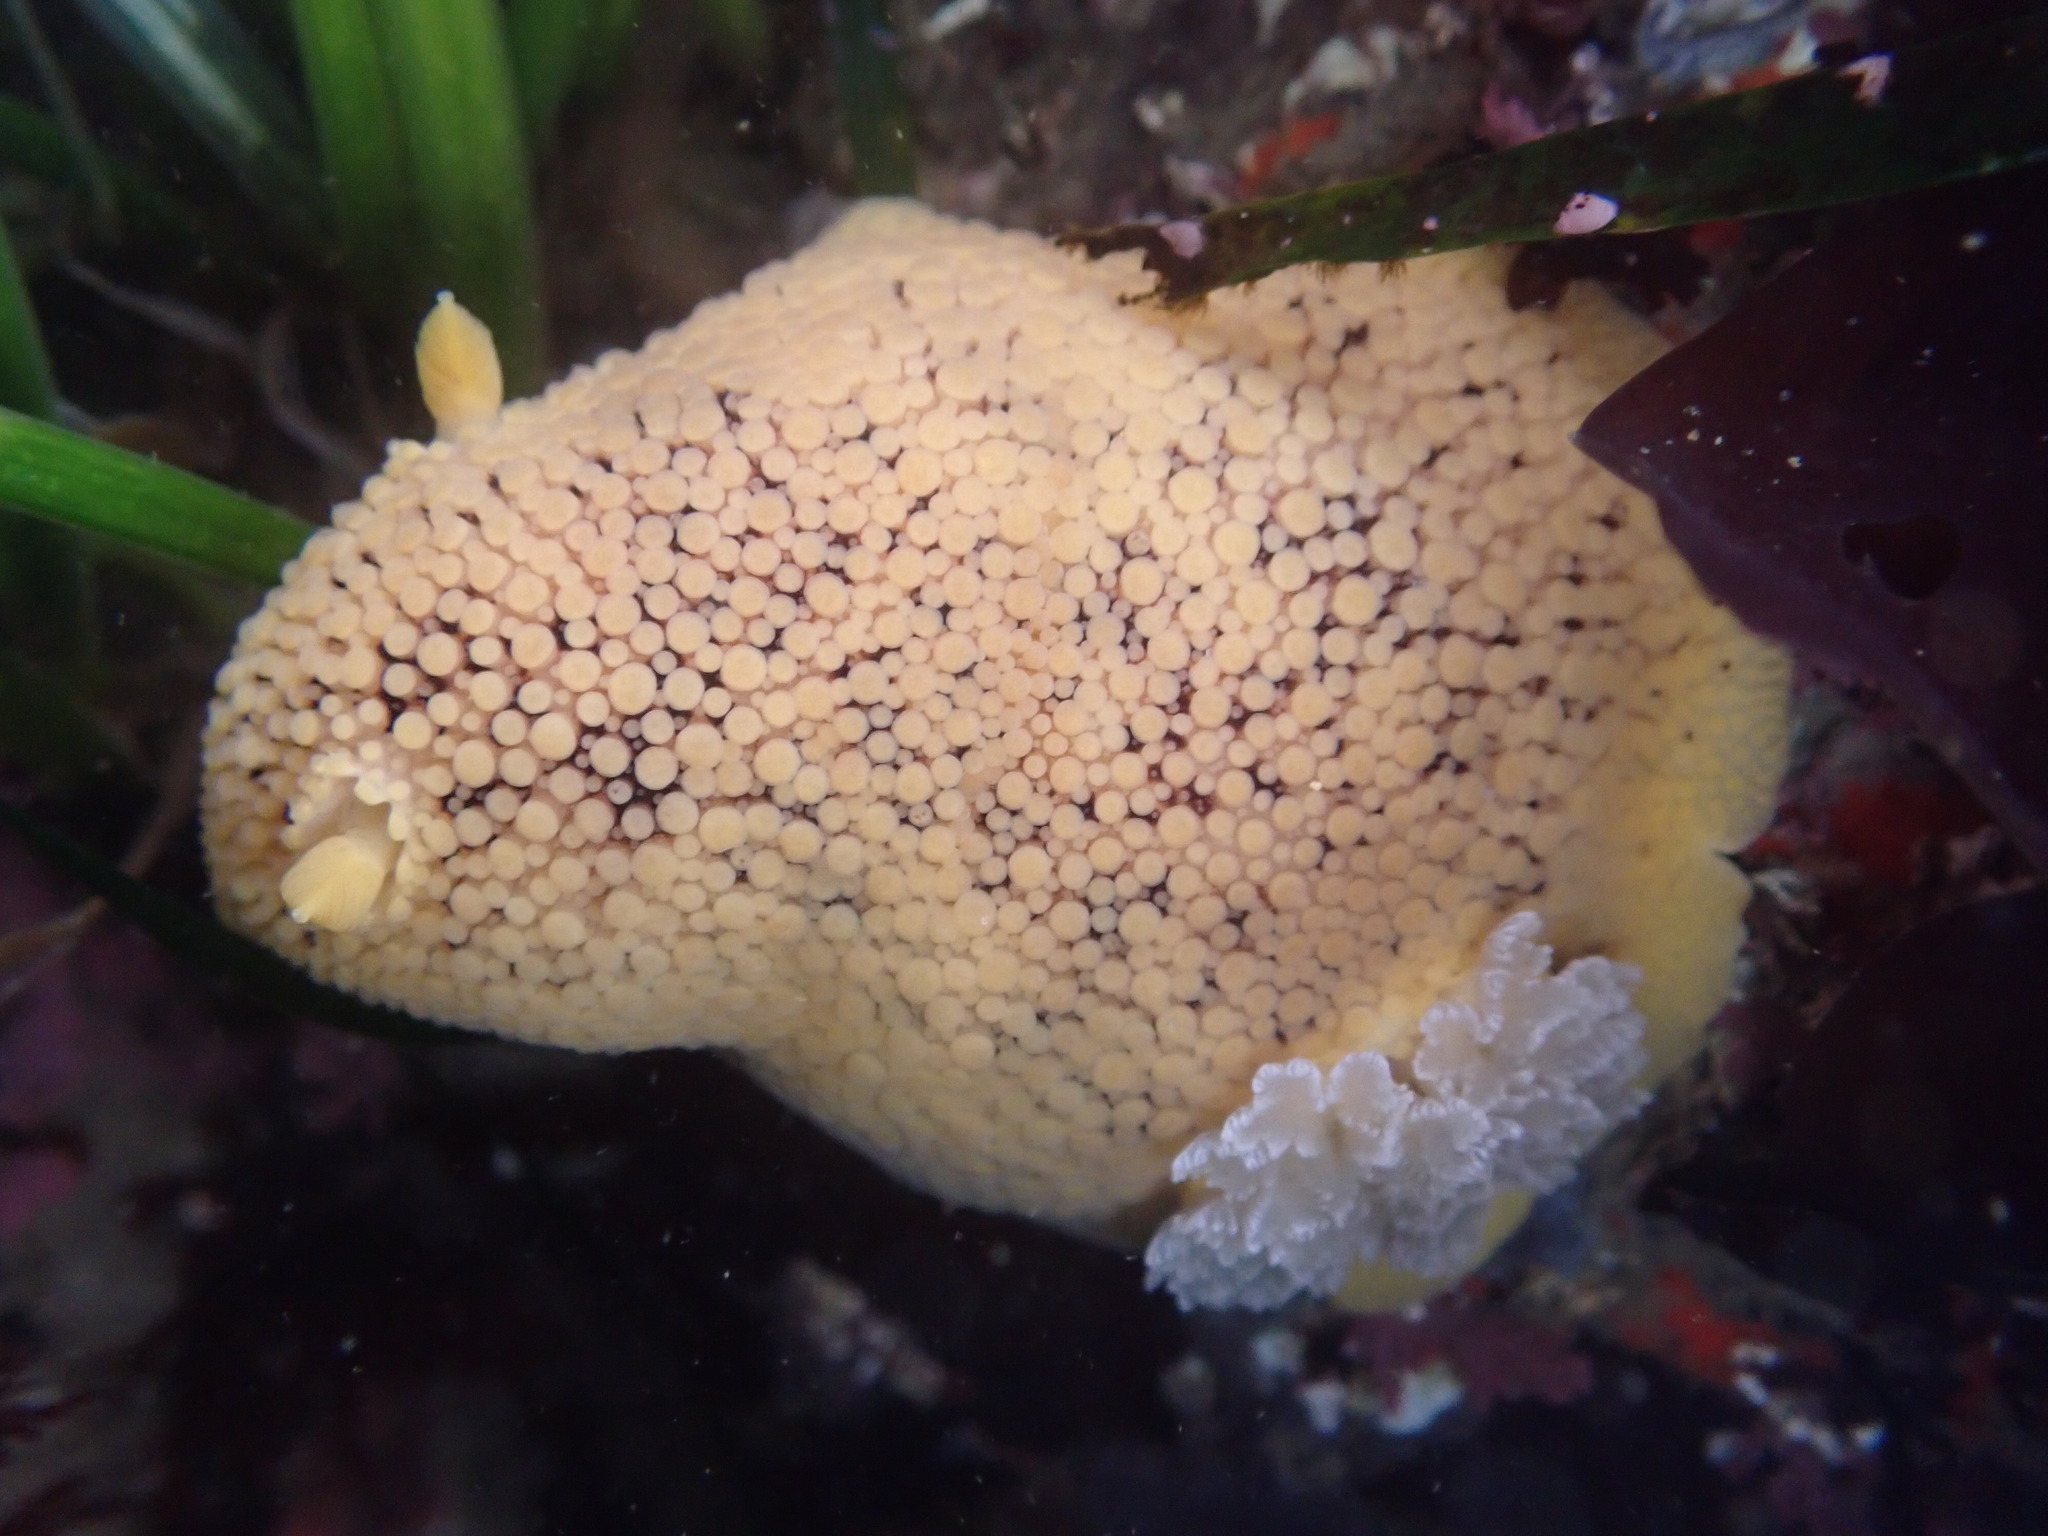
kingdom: Animalia
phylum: Mollusca
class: Gastropoda
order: Nudibranchia
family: Discodorididae
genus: Peltodoris
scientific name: Peltodoris nobilis
